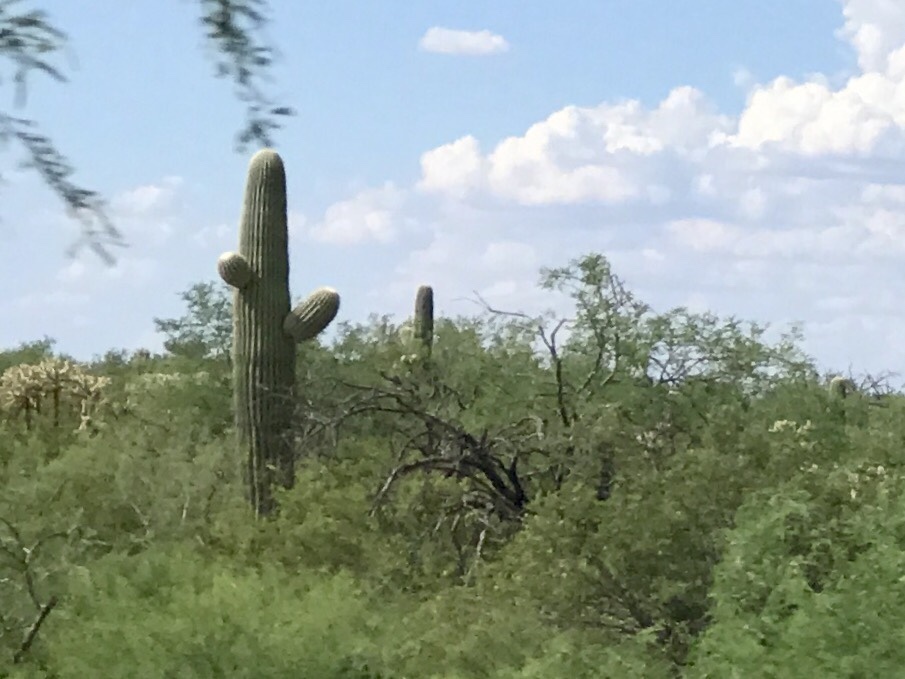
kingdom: Plantae
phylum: Tracheophyta
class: Magnoliopsida
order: Caryophyllales
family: Cactaceae
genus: Carnegiea
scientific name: Carnegiea gigantea
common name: Saguaro
